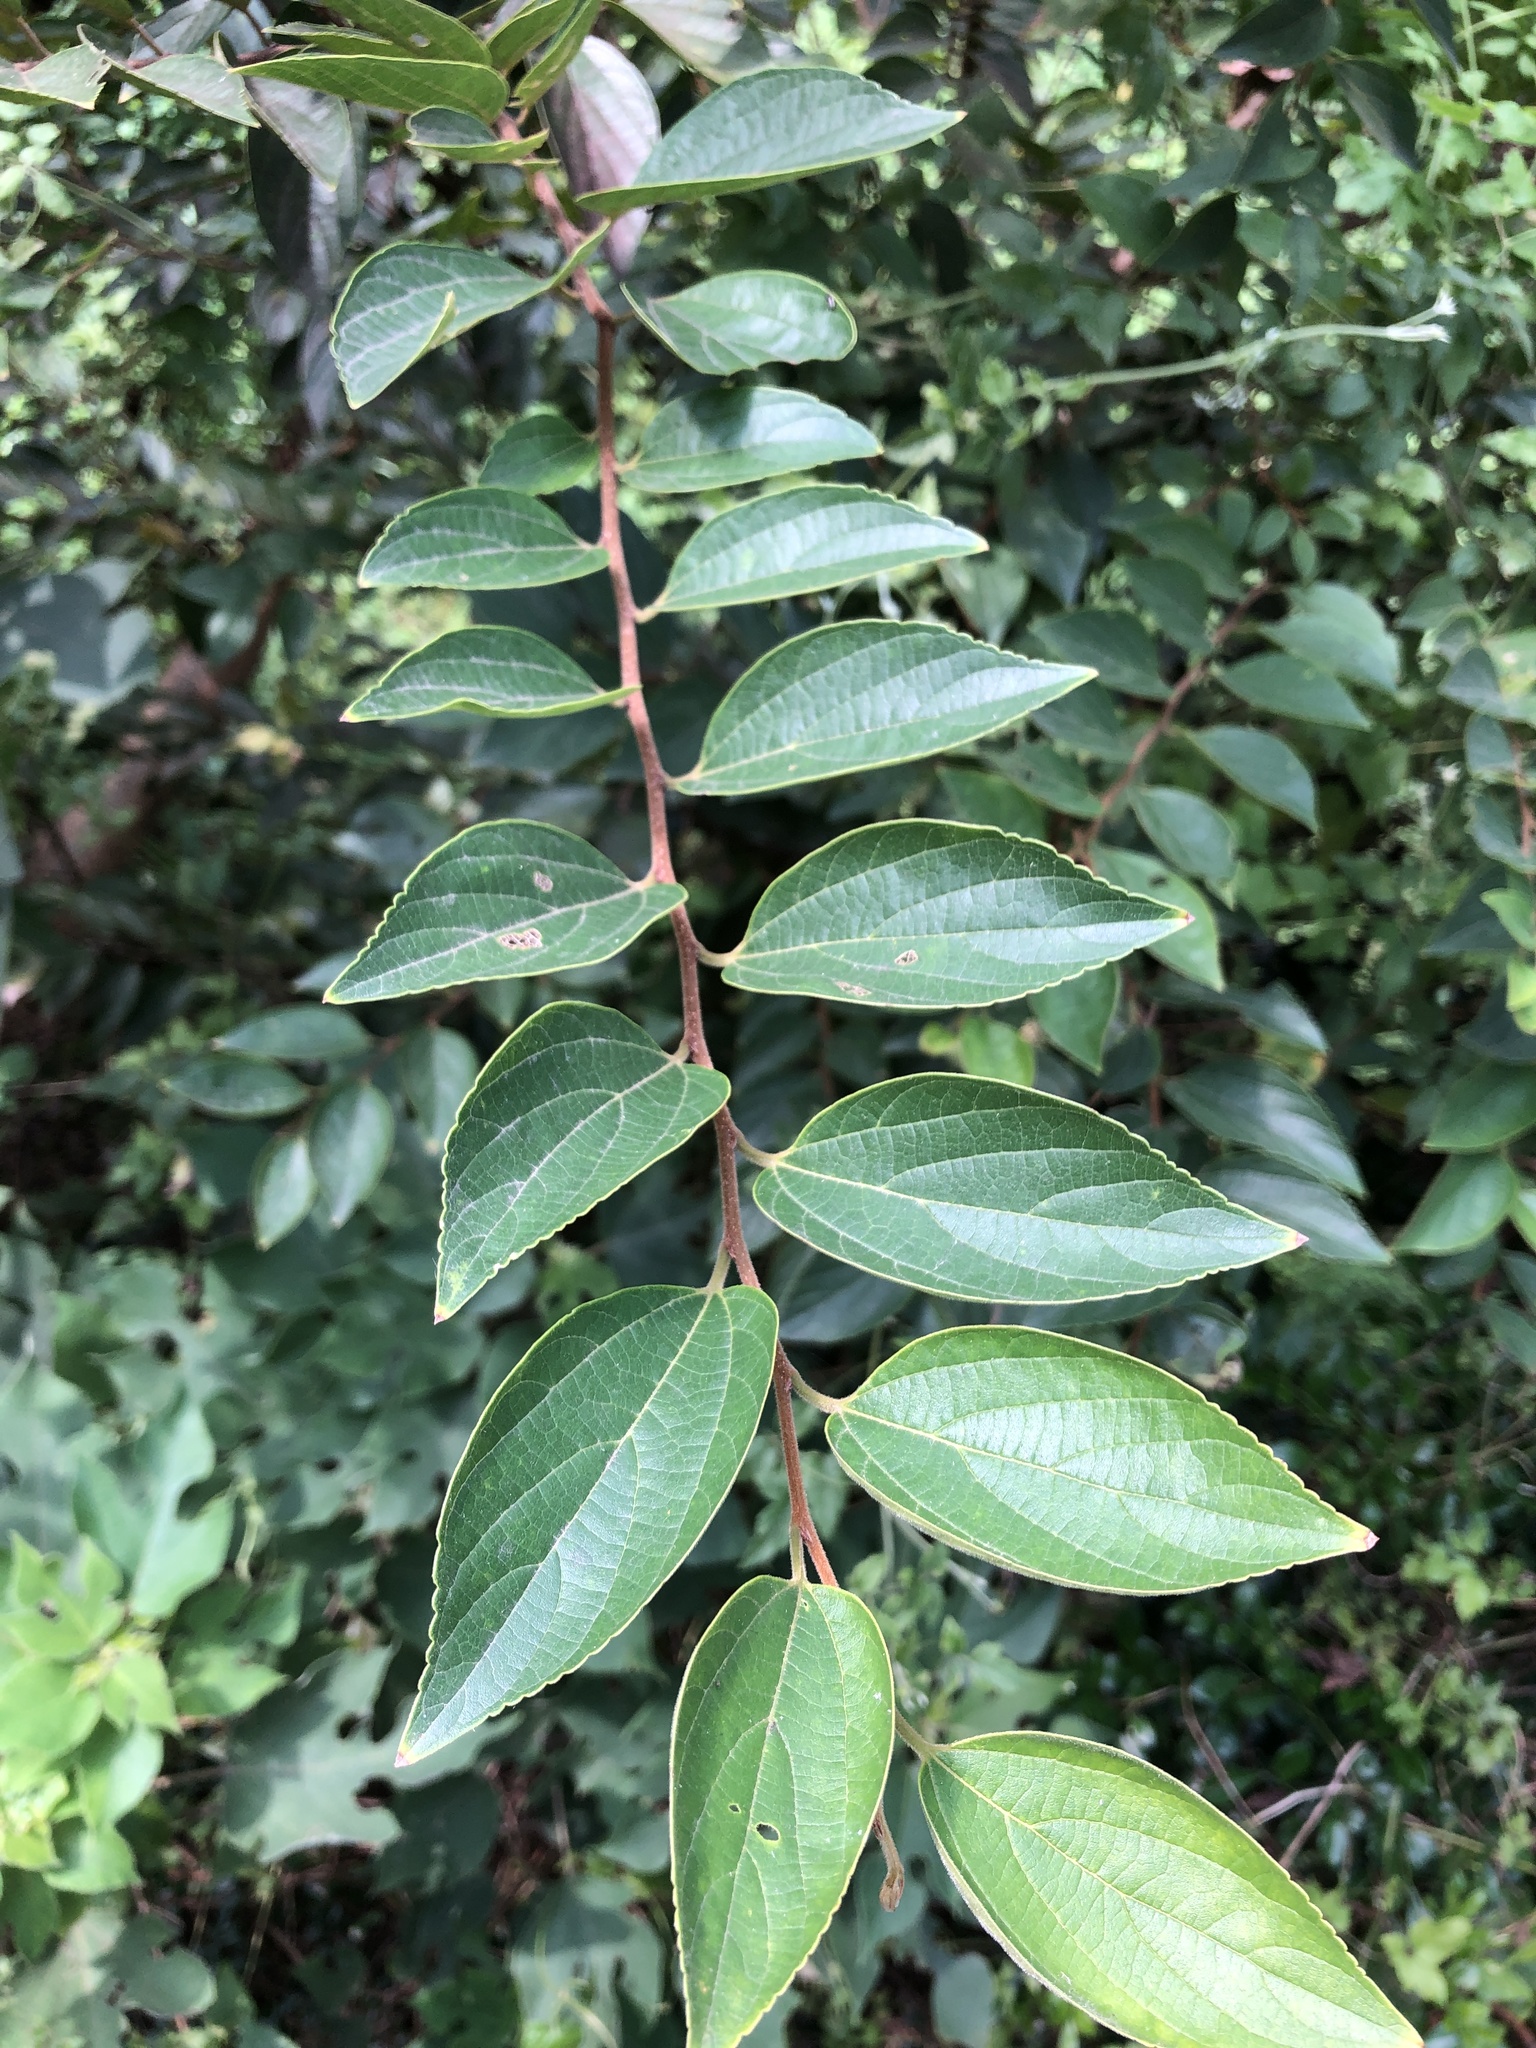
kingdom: Plantae
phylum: Tracheophyta
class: Magnoliopsida
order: Rosales
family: Cannabaceae
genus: Celtis
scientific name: Celtis sinensis
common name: Chinese hackberry
